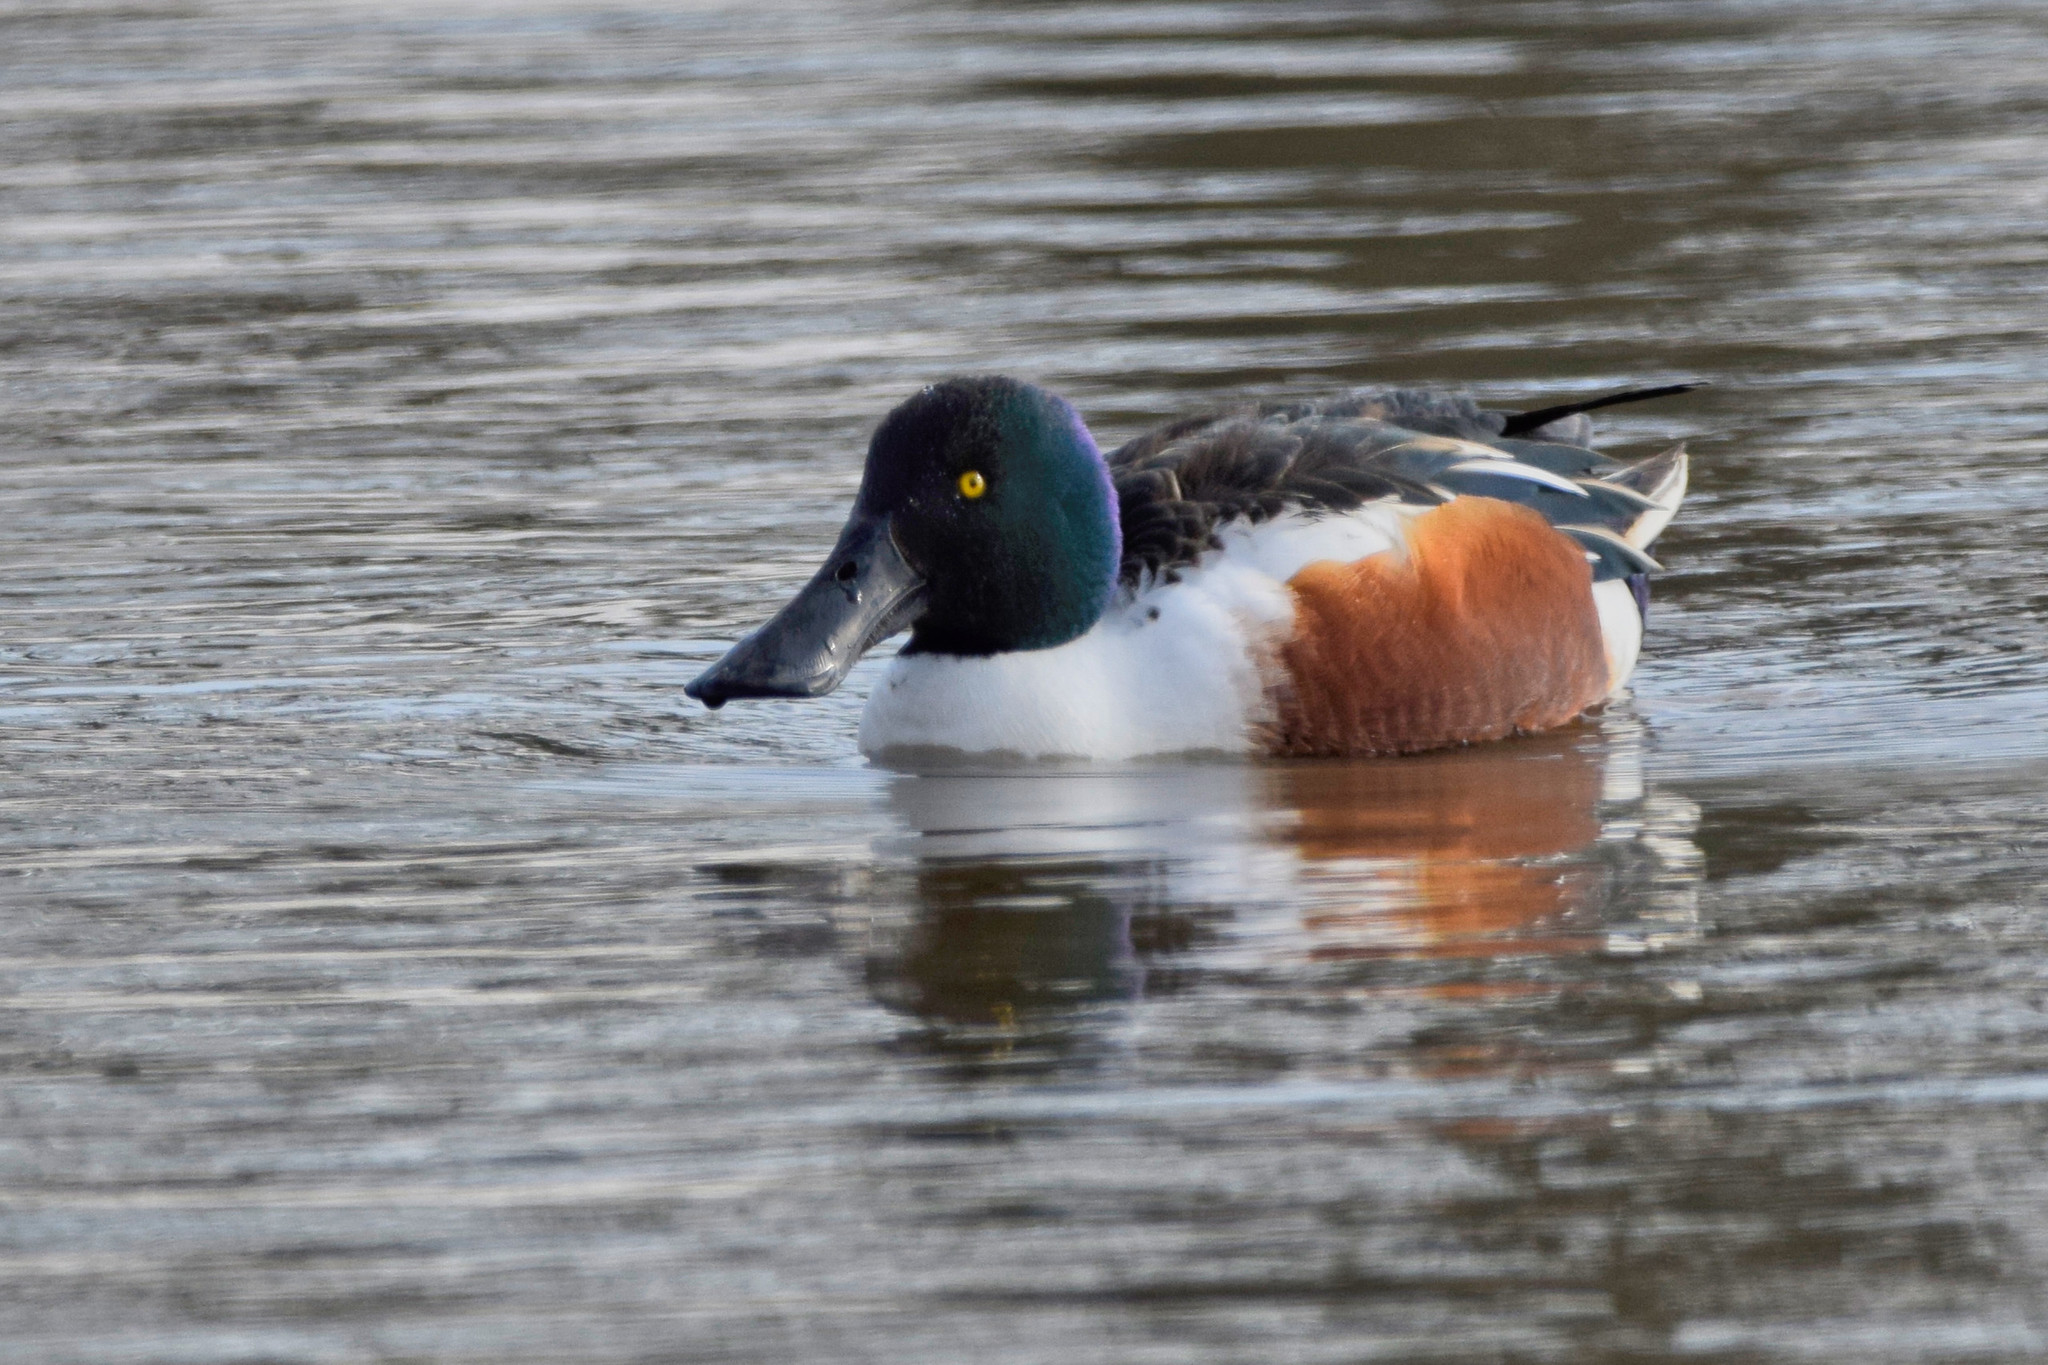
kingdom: Animalia
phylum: Chordata
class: Aves
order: Anseriformes
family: Anatidae
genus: Spatula
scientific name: Spatula clypeata
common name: Northern shoveler
